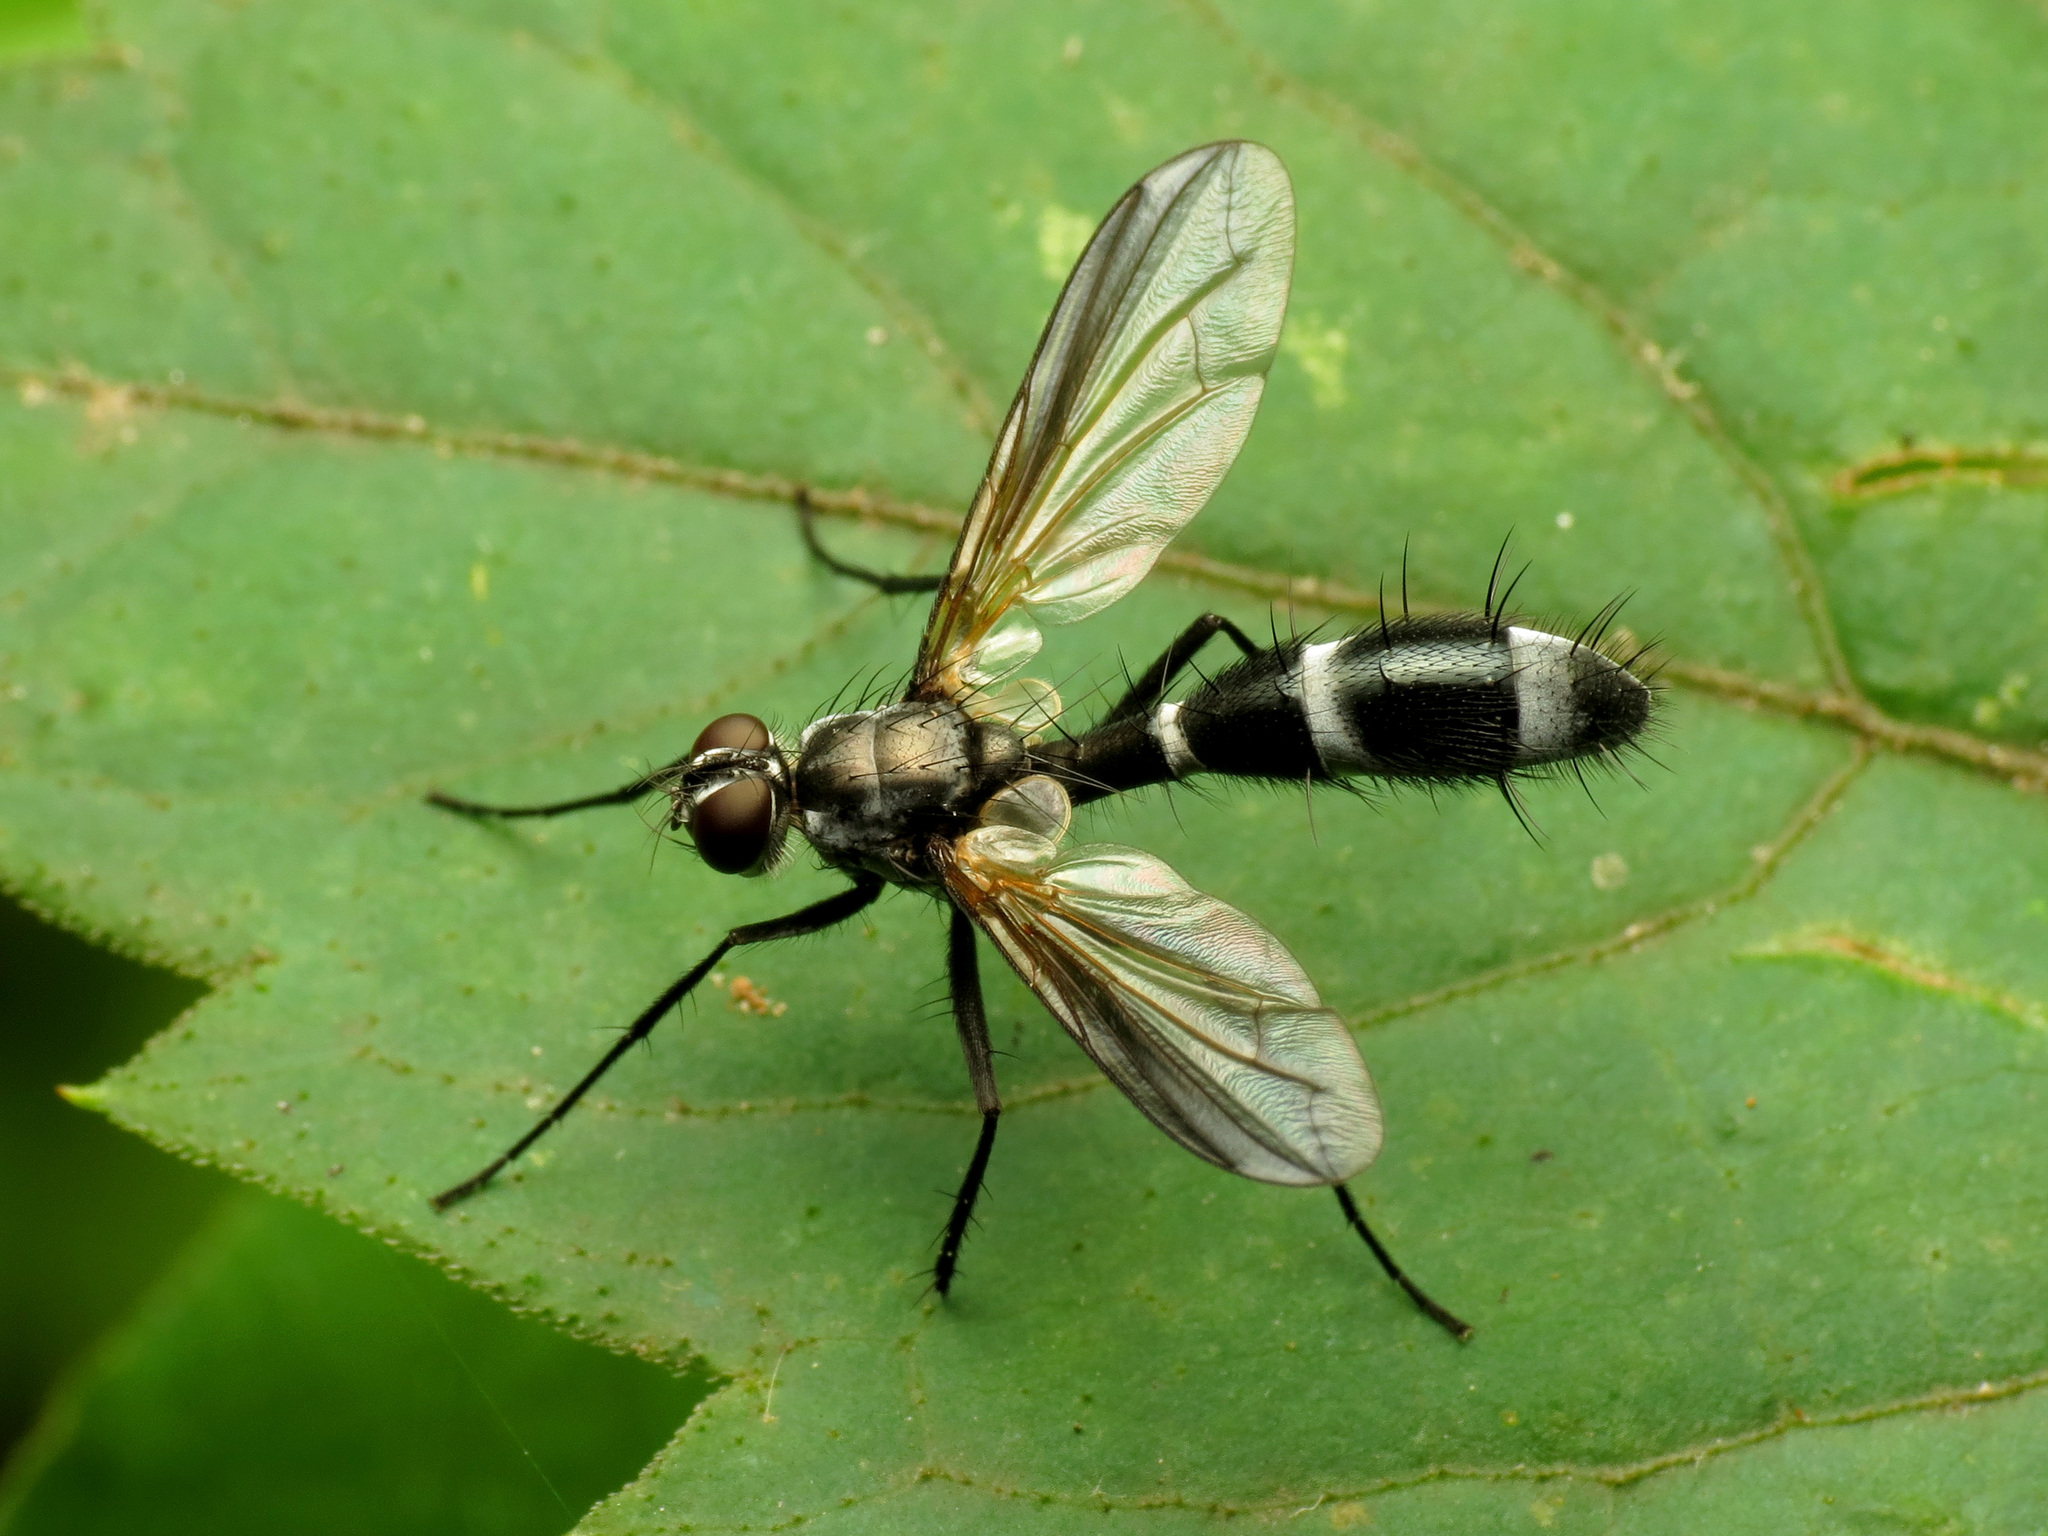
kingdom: Animalia
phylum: Arthropoda
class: Insecta
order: Diptera
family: Tachinidae
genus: Cordyligaster
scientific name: Cordyligaster septentrionalis
